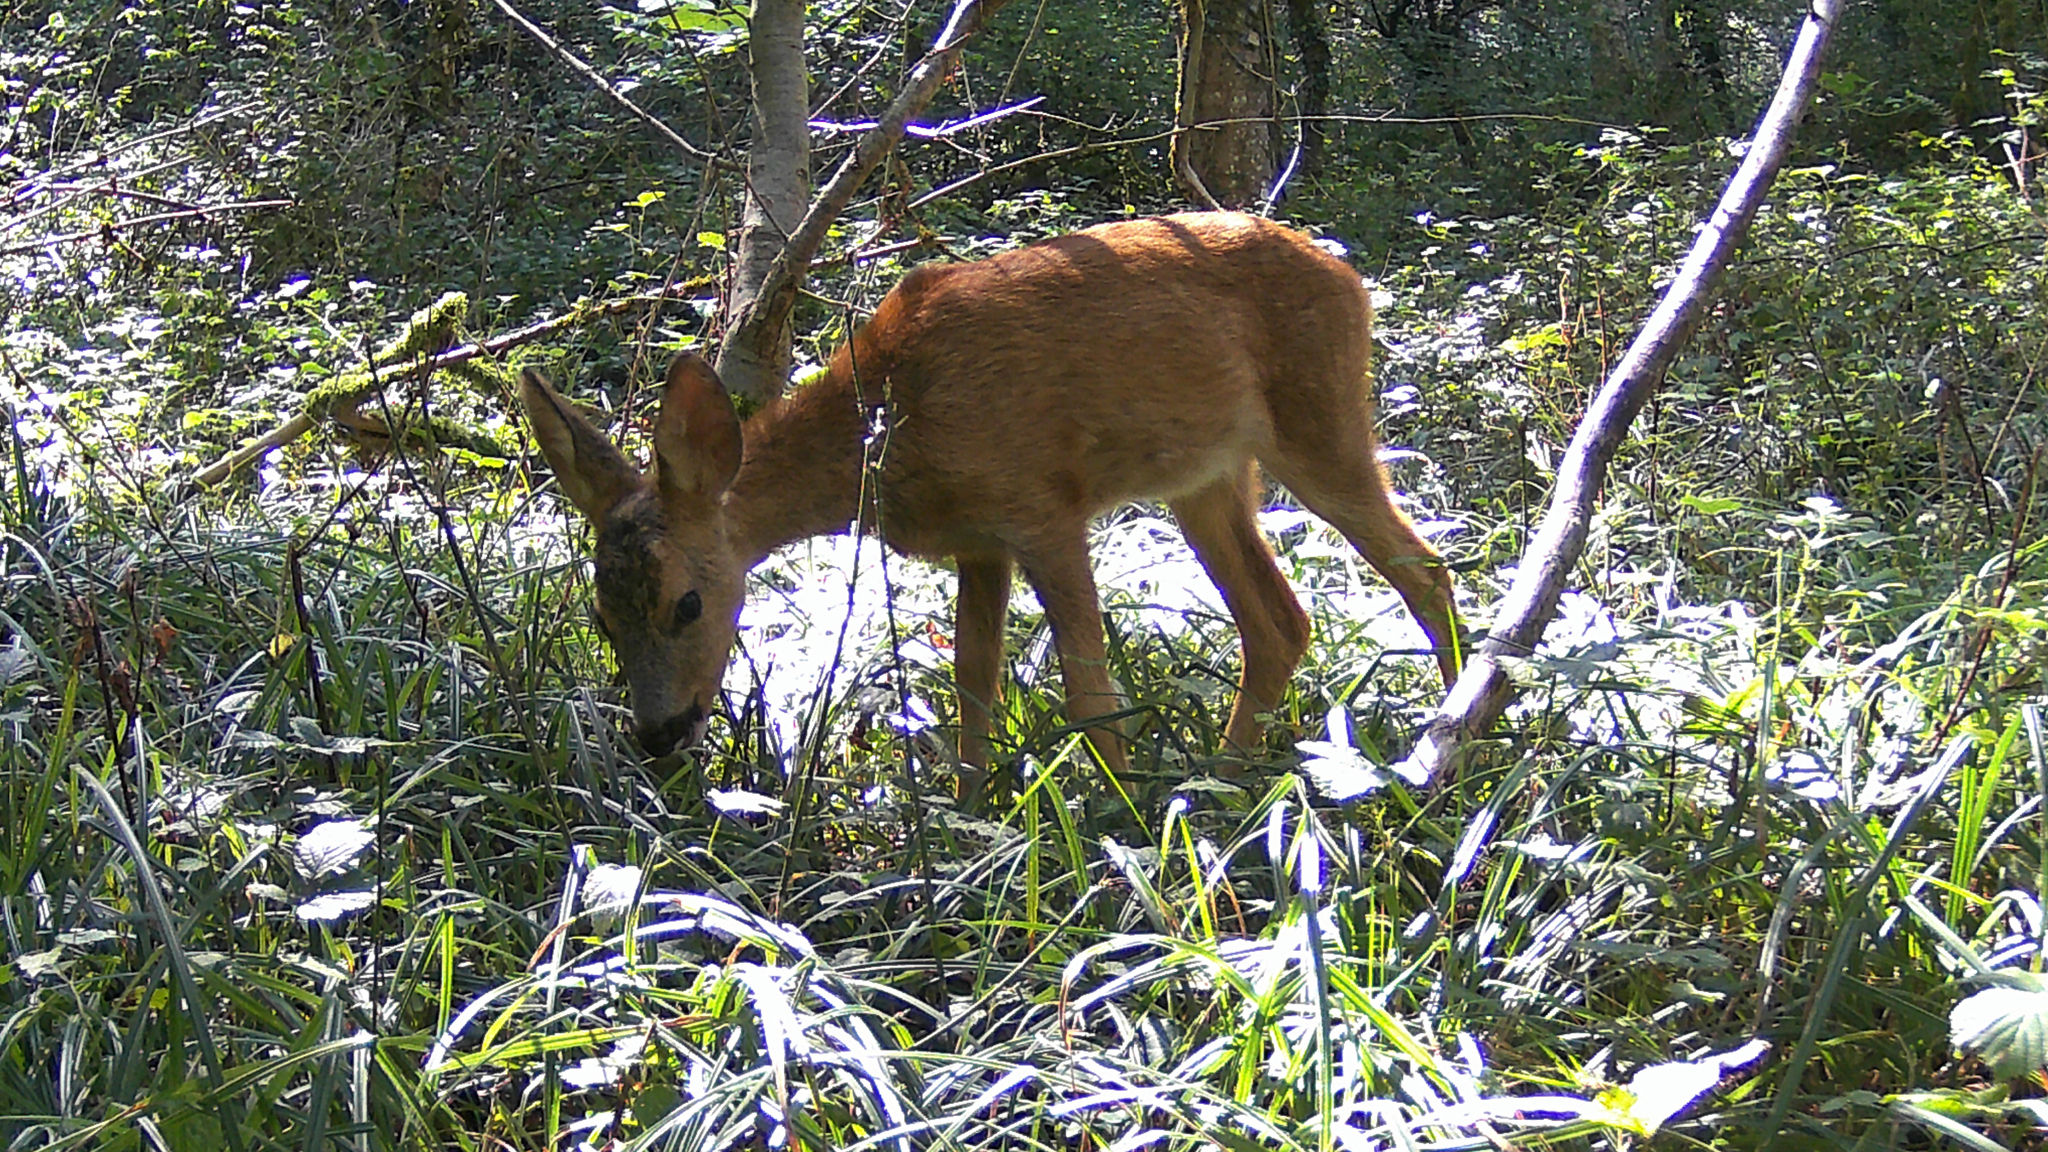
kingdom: Animalia
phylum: Chordata
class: Mammalia
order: Artiodactyla
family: Cervidae
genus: Capreolus
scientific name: Capreolus capreolus
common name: Western roe deer
